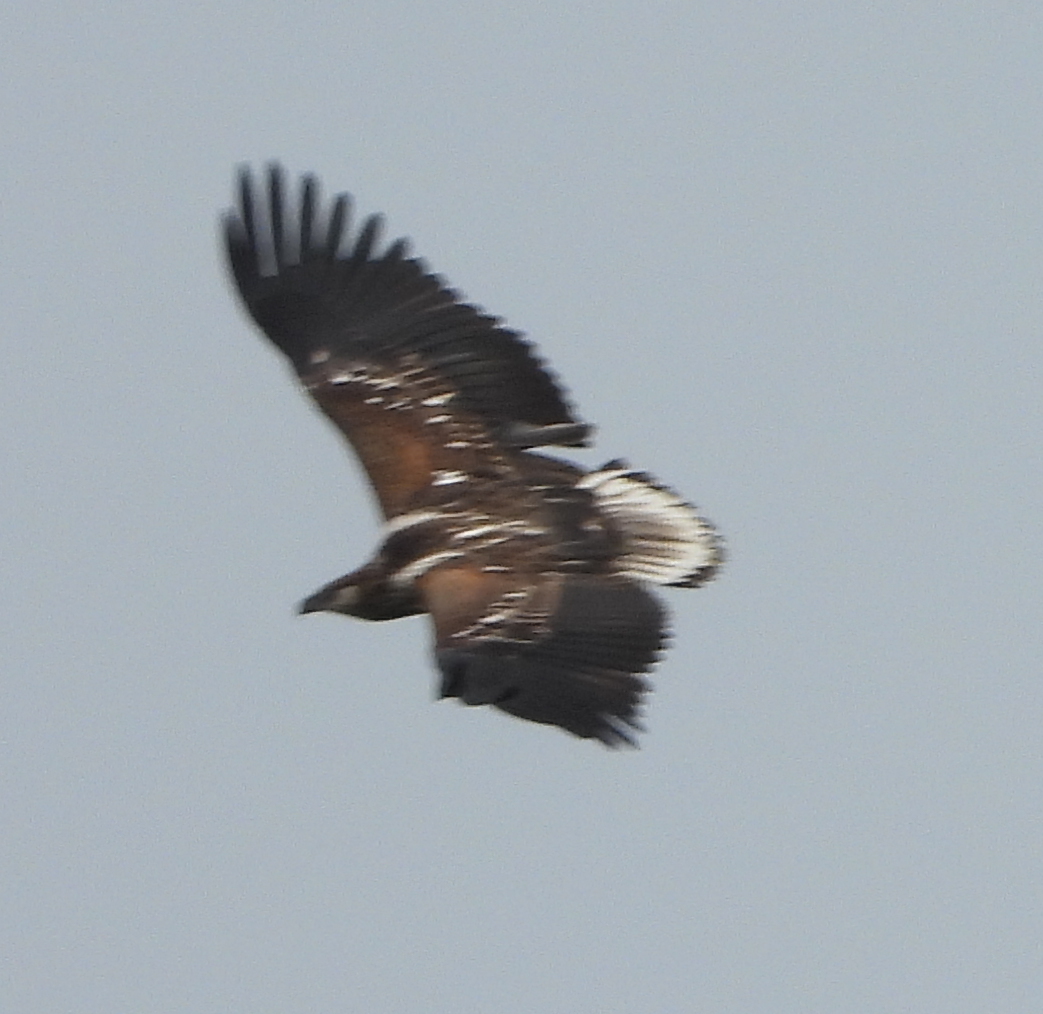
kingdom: Animalia
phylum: Chordata
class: Aves
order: Accipitriformes
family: Accipitridae
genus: Haliaeetus
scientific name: Haliaeetus vocifer
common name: African fish eagle
